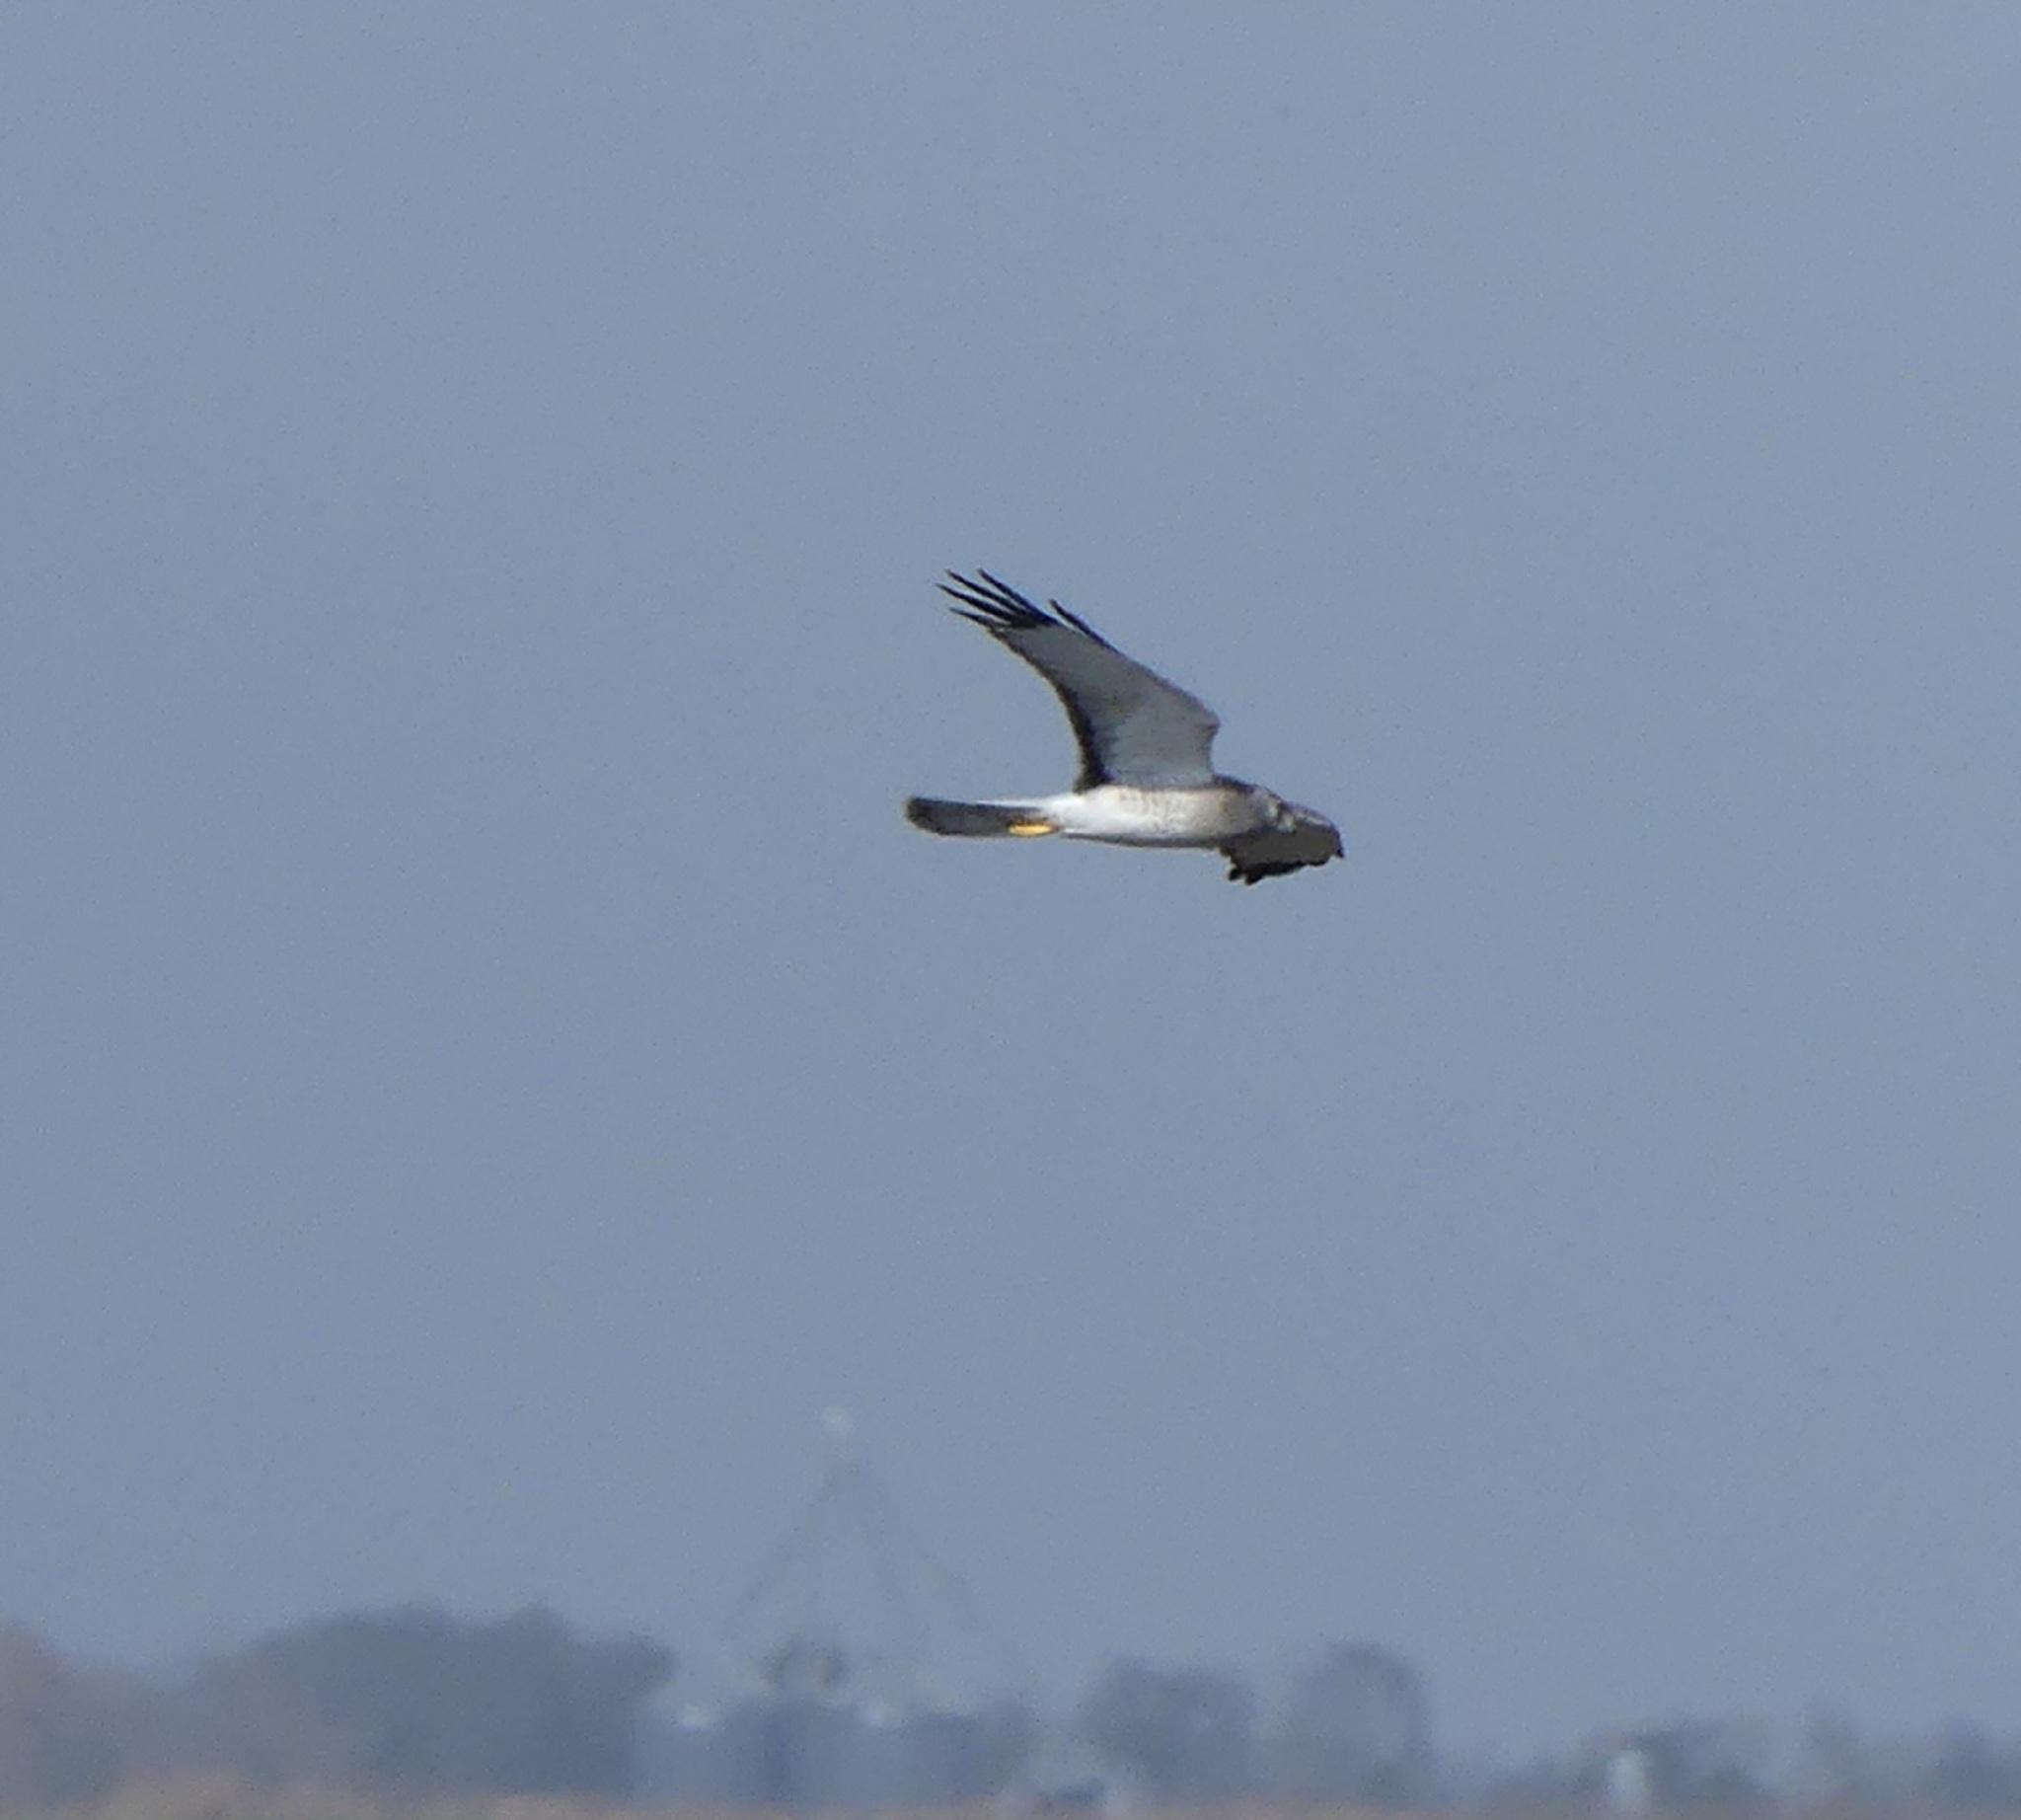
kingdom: Animalia
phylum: Chordata
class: Aves
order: Accipitriformes
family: Accipitridae
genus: Circus
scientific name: Circus cyaneus
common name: Hen harrier
